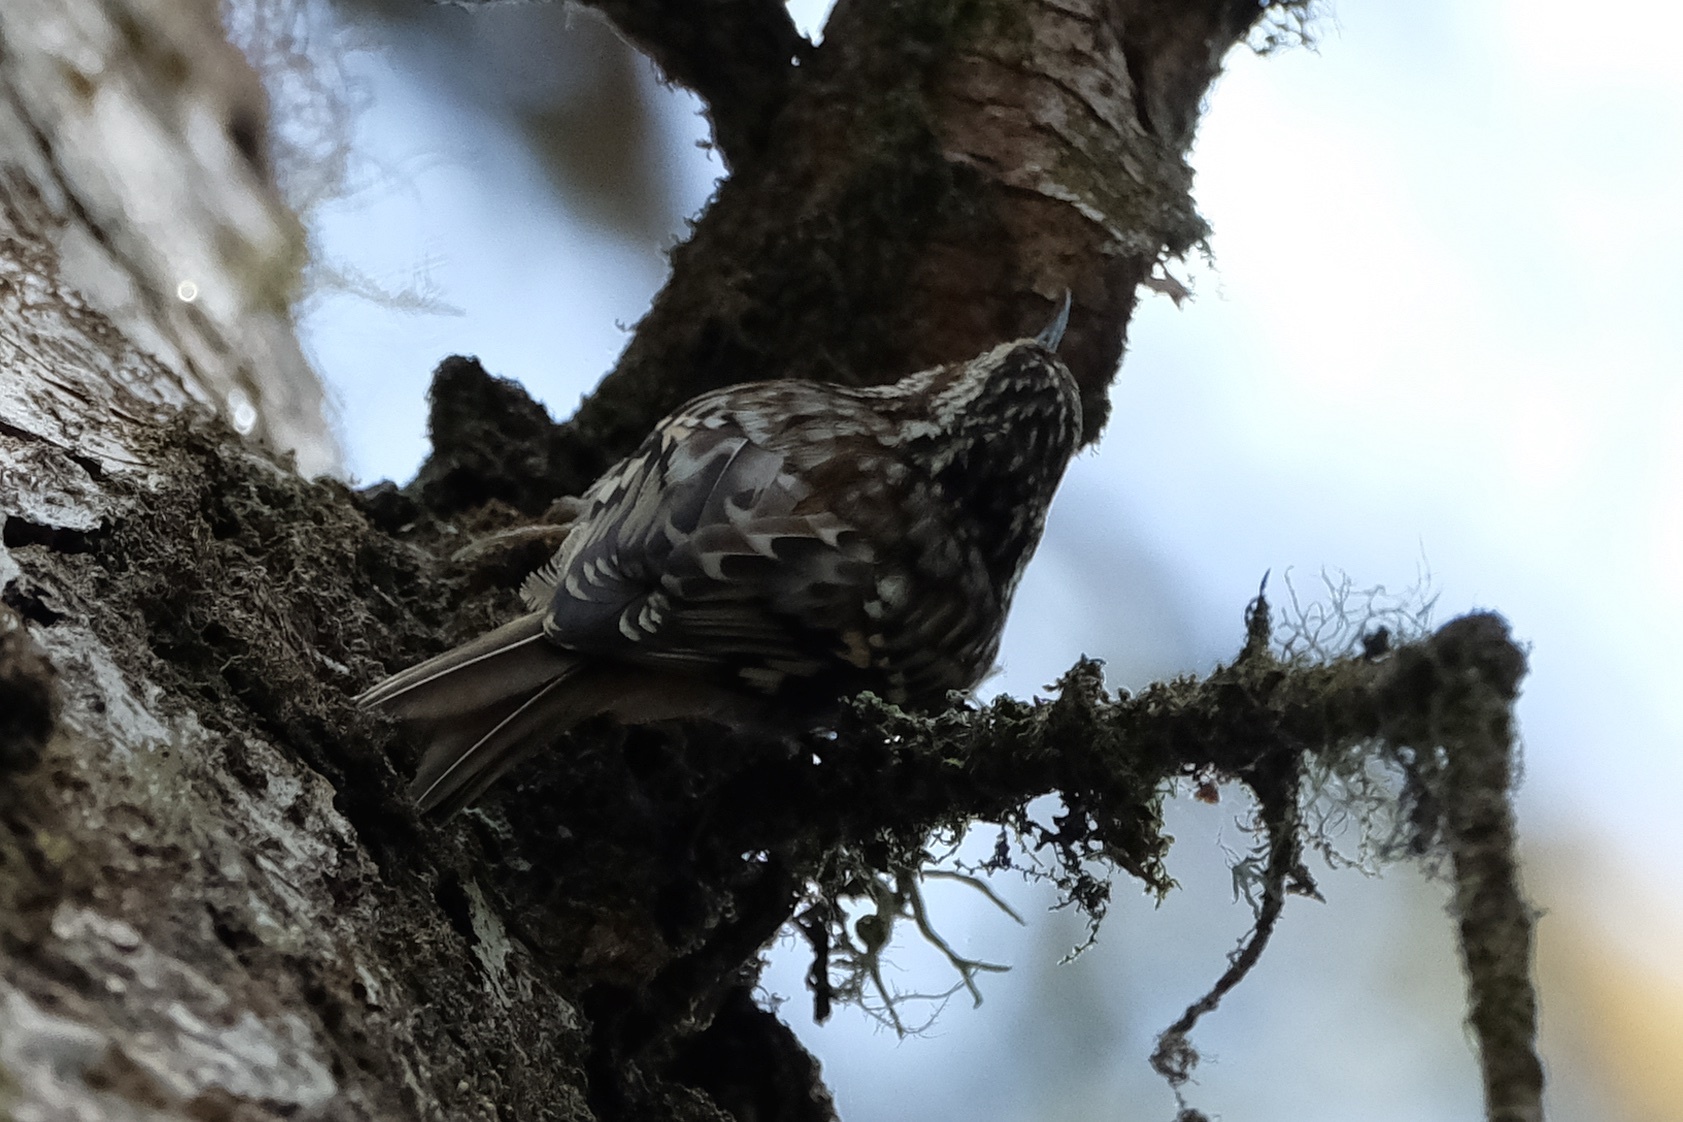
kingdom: Animalia
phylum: Chordata
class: Aves
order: Passeriformes
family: Certhiidae
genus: Certhia
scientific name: Certhia americana
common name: Brown creeper
